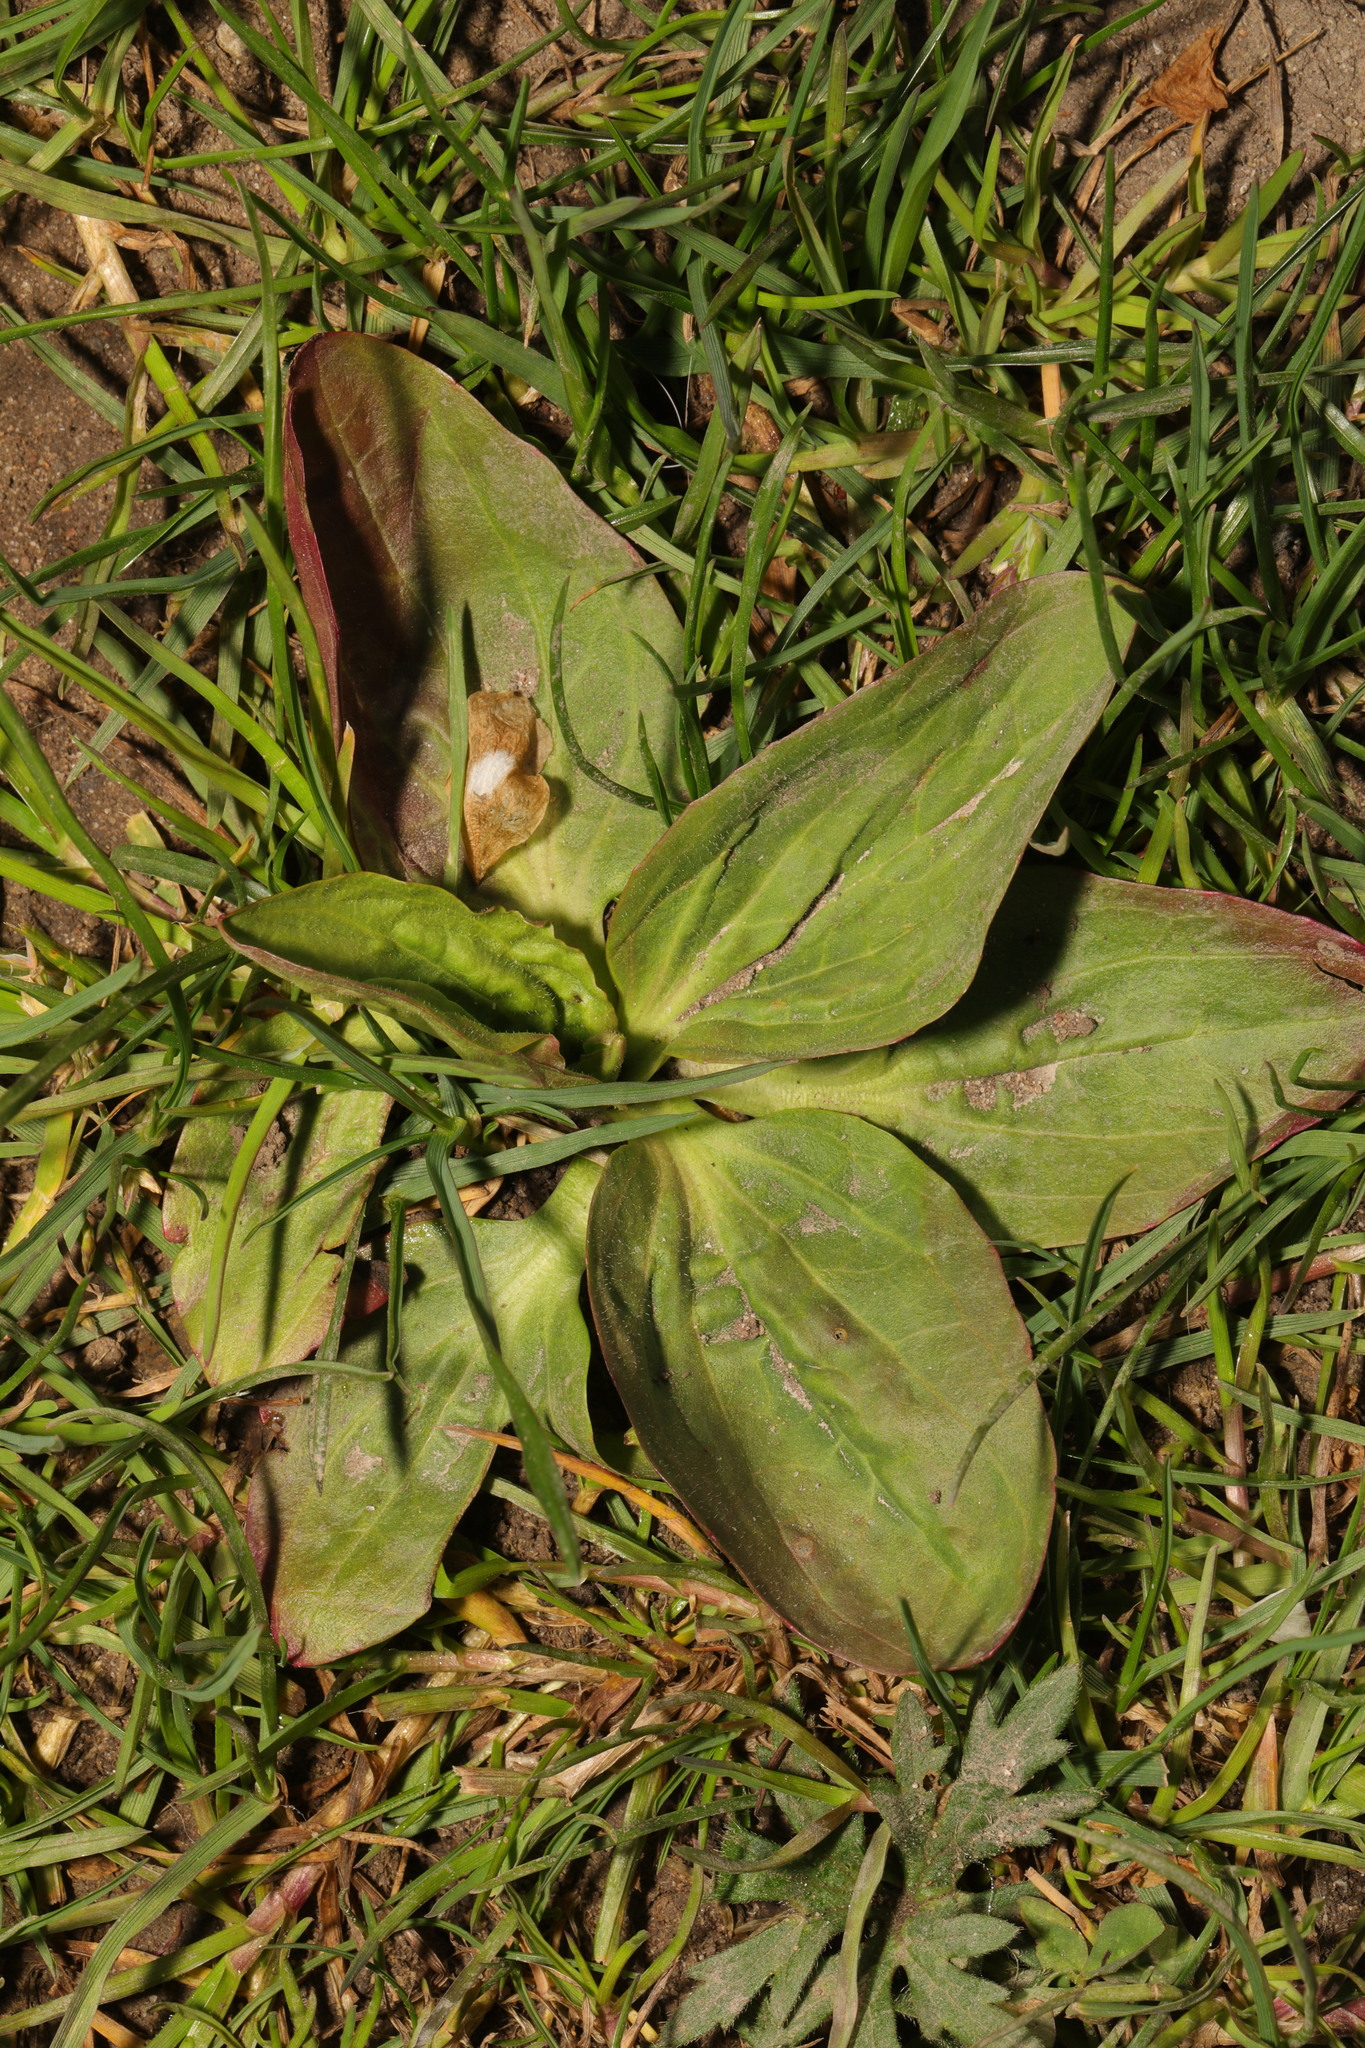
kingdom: Plantae
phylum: Tracheophyta
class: Magnoliopsida
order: Lamiales
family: Plantaginaceae
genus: Plantago
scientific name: Plantago major
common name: Common plantain
